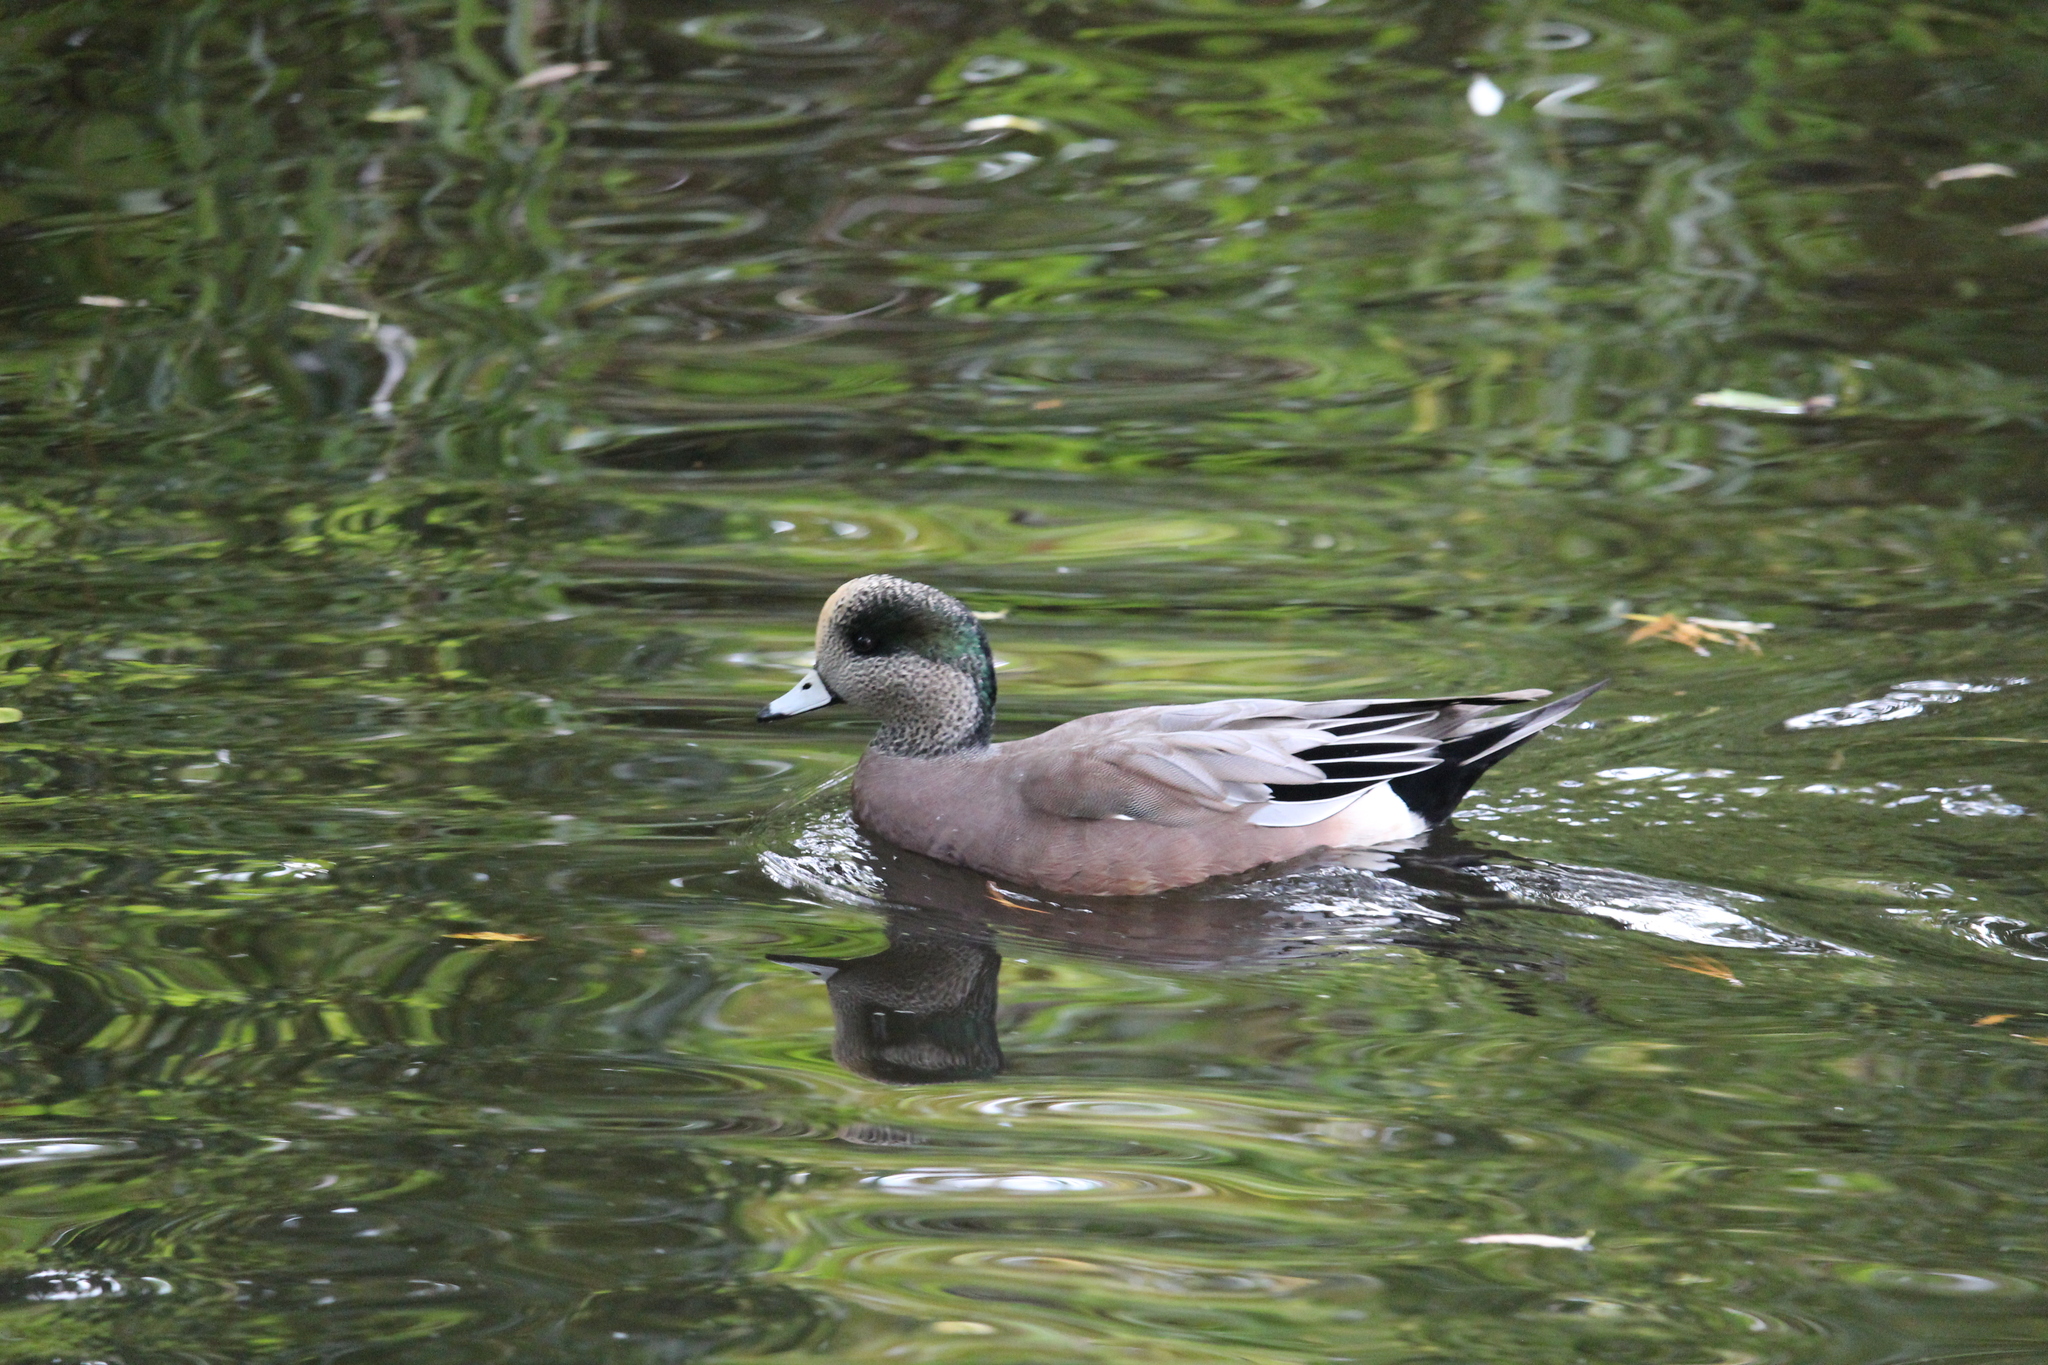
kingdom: Animalia
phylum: Chordata
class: Aves
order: Anseriformes
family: Anatidae
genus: Mareca
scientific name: Mareca americana
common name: American wigeon
